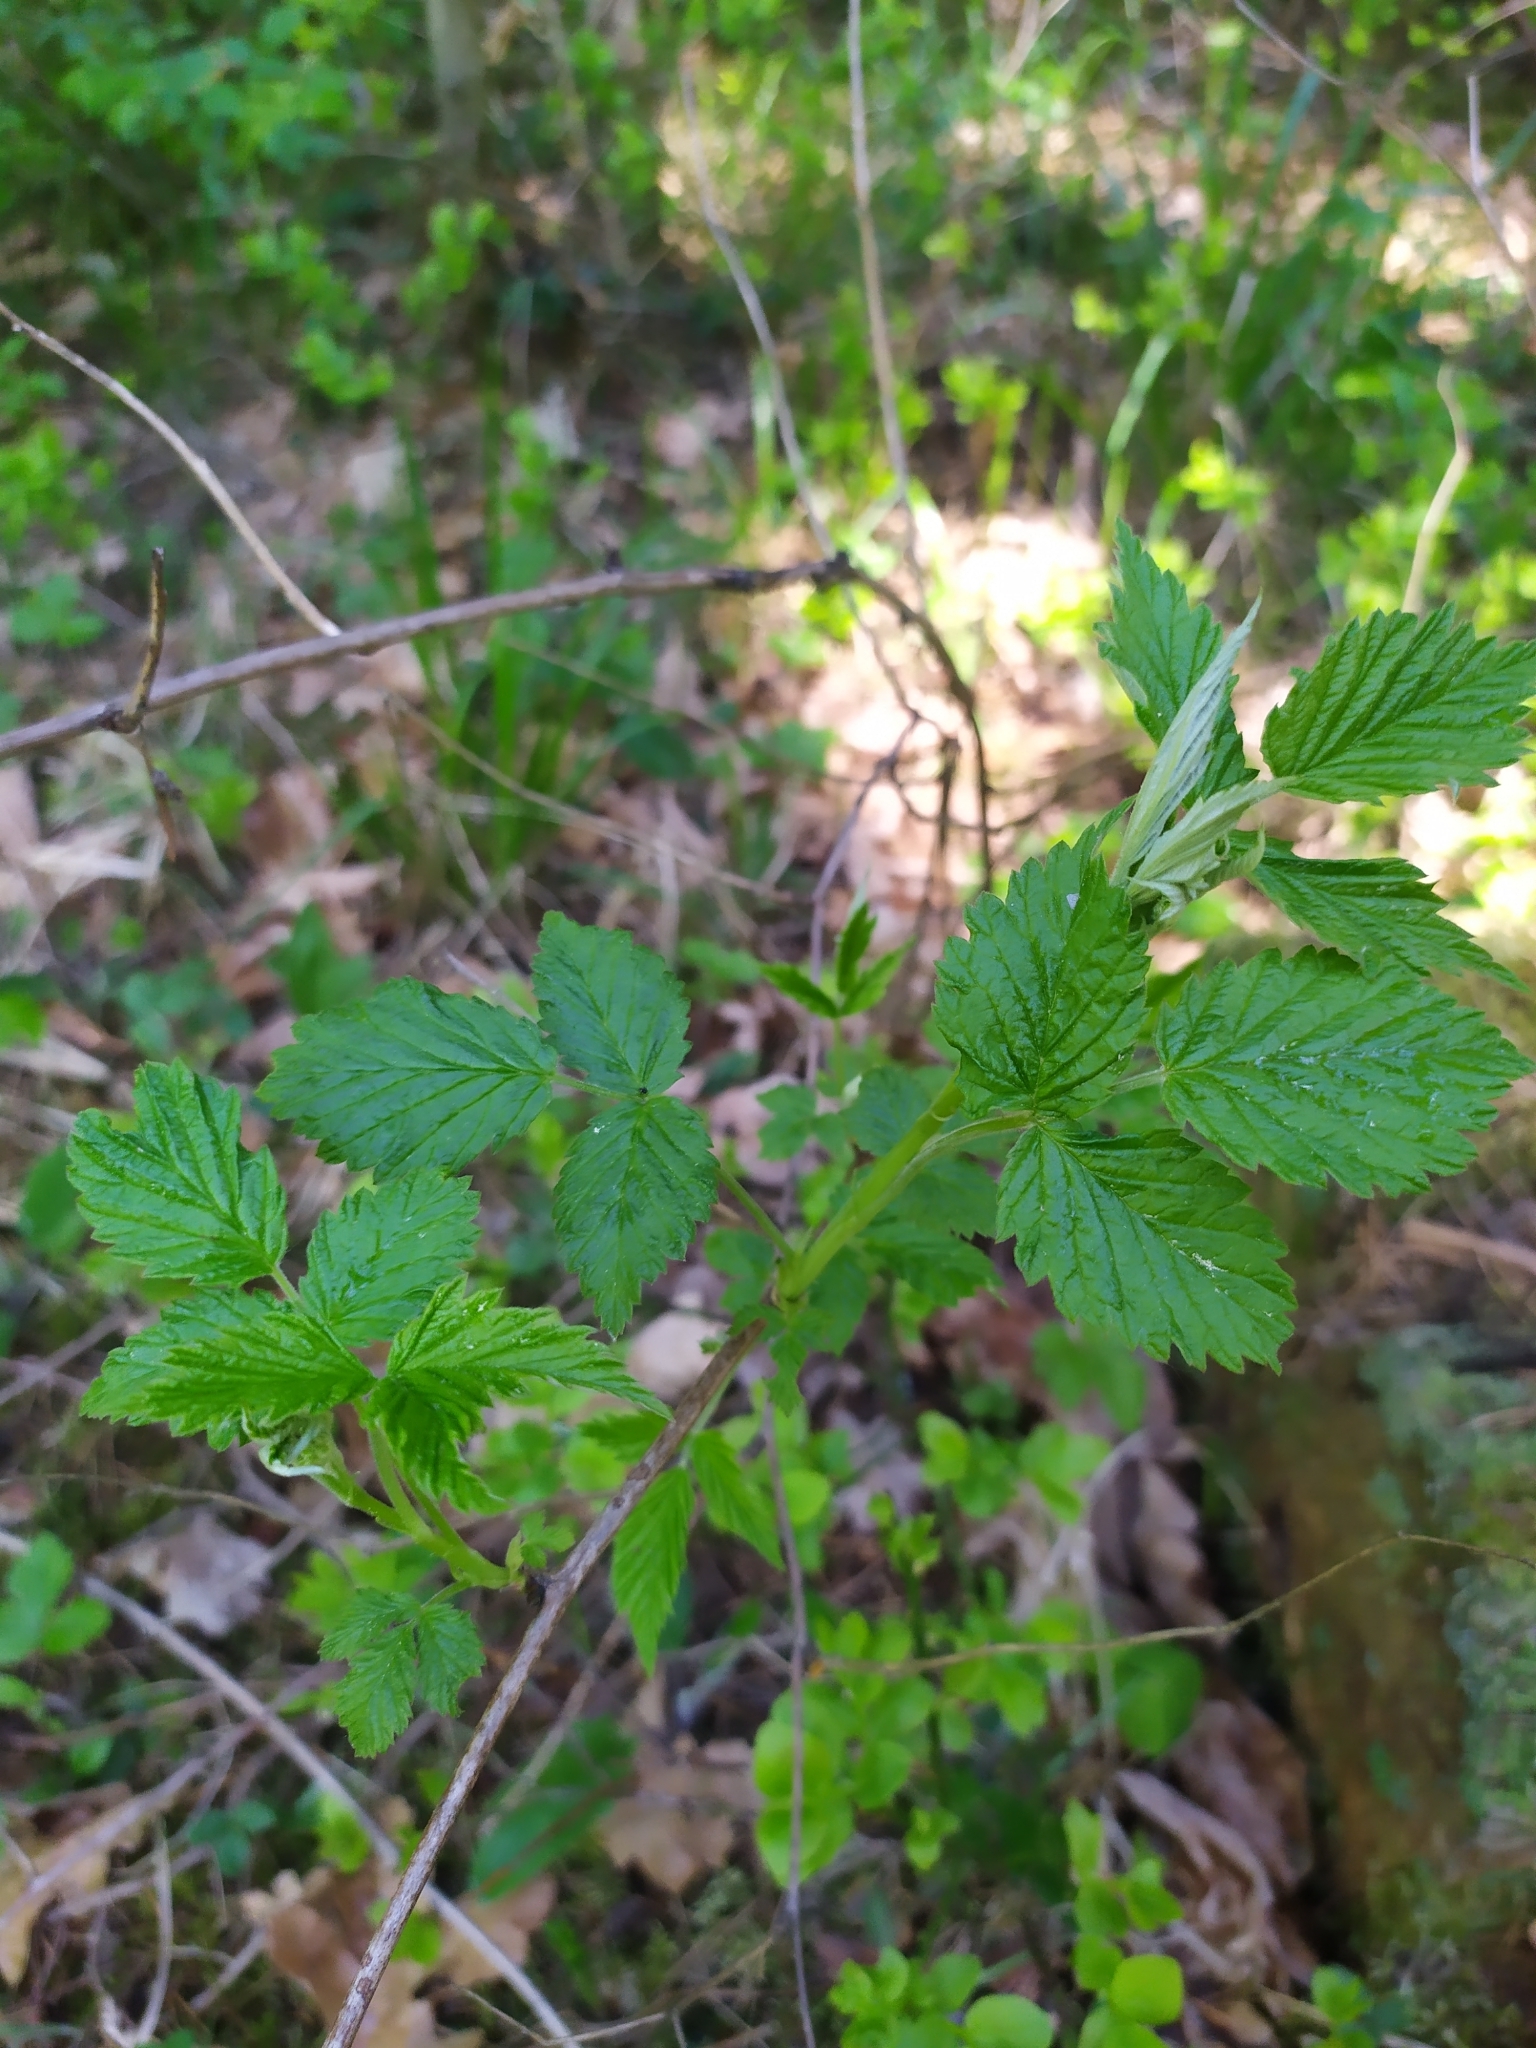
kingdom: Plantae
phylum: Tracheophyta
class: Magnoliopsida
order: Rosales
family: Rosaceae
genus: Rubus
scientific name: Rubus idaeus
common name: Raspberry
